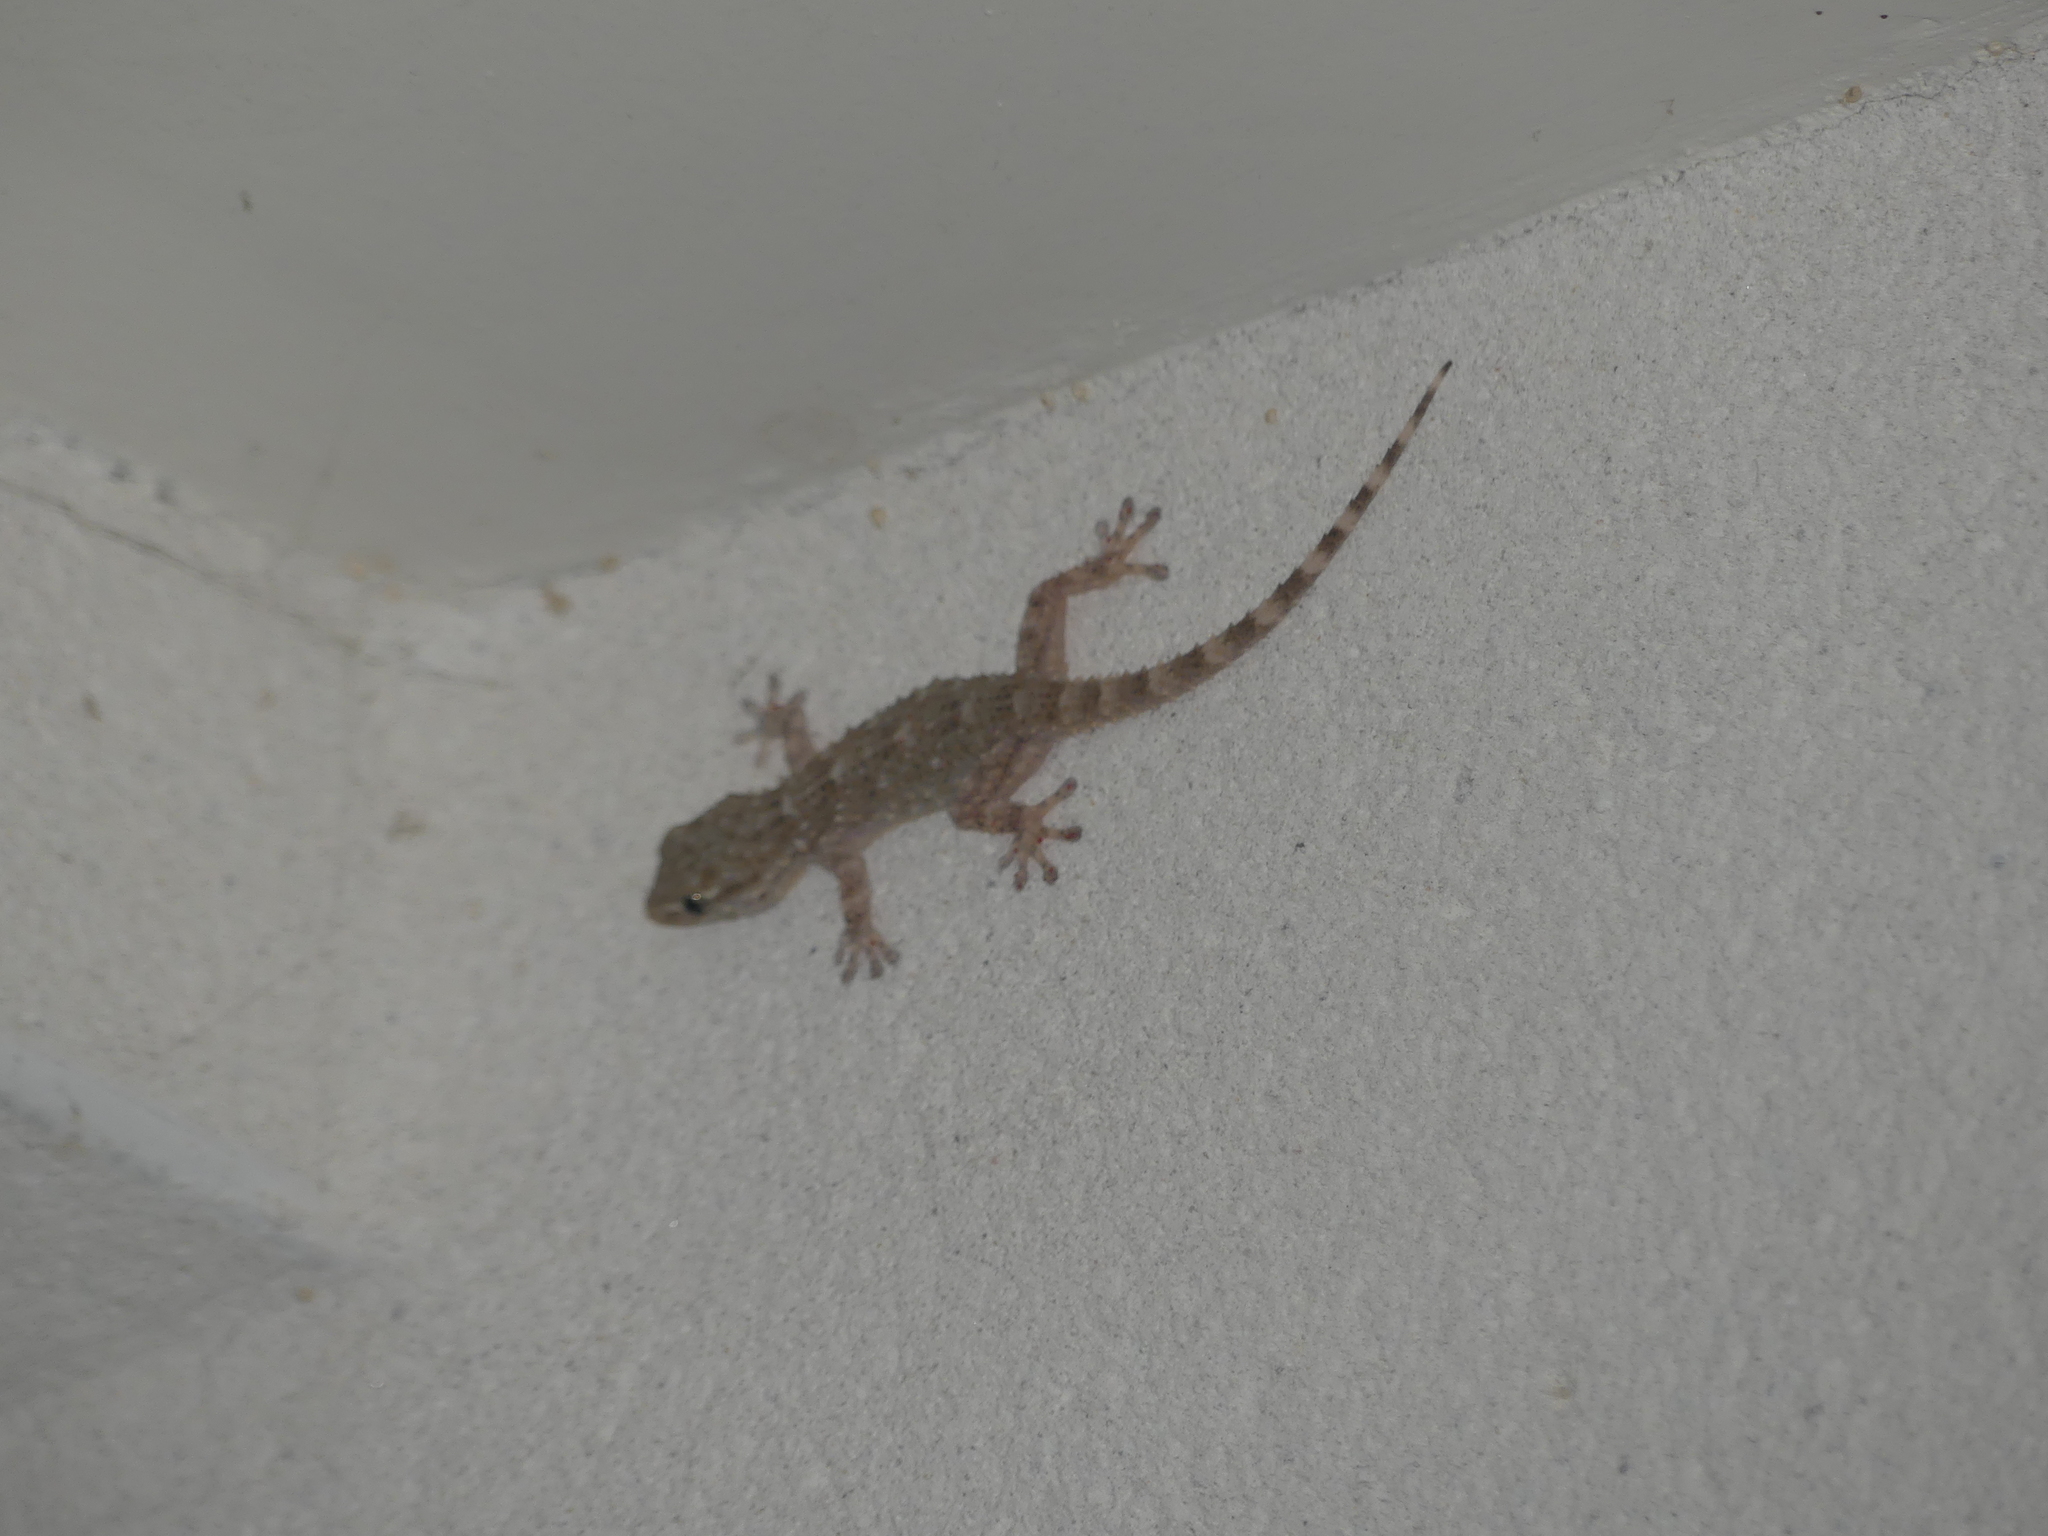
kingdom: Animalia
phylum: Chordata
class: Squamata
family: Phyllodactylidae
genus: Tarentola
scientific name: Tarentola mauritanica
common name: Moorish gecko
